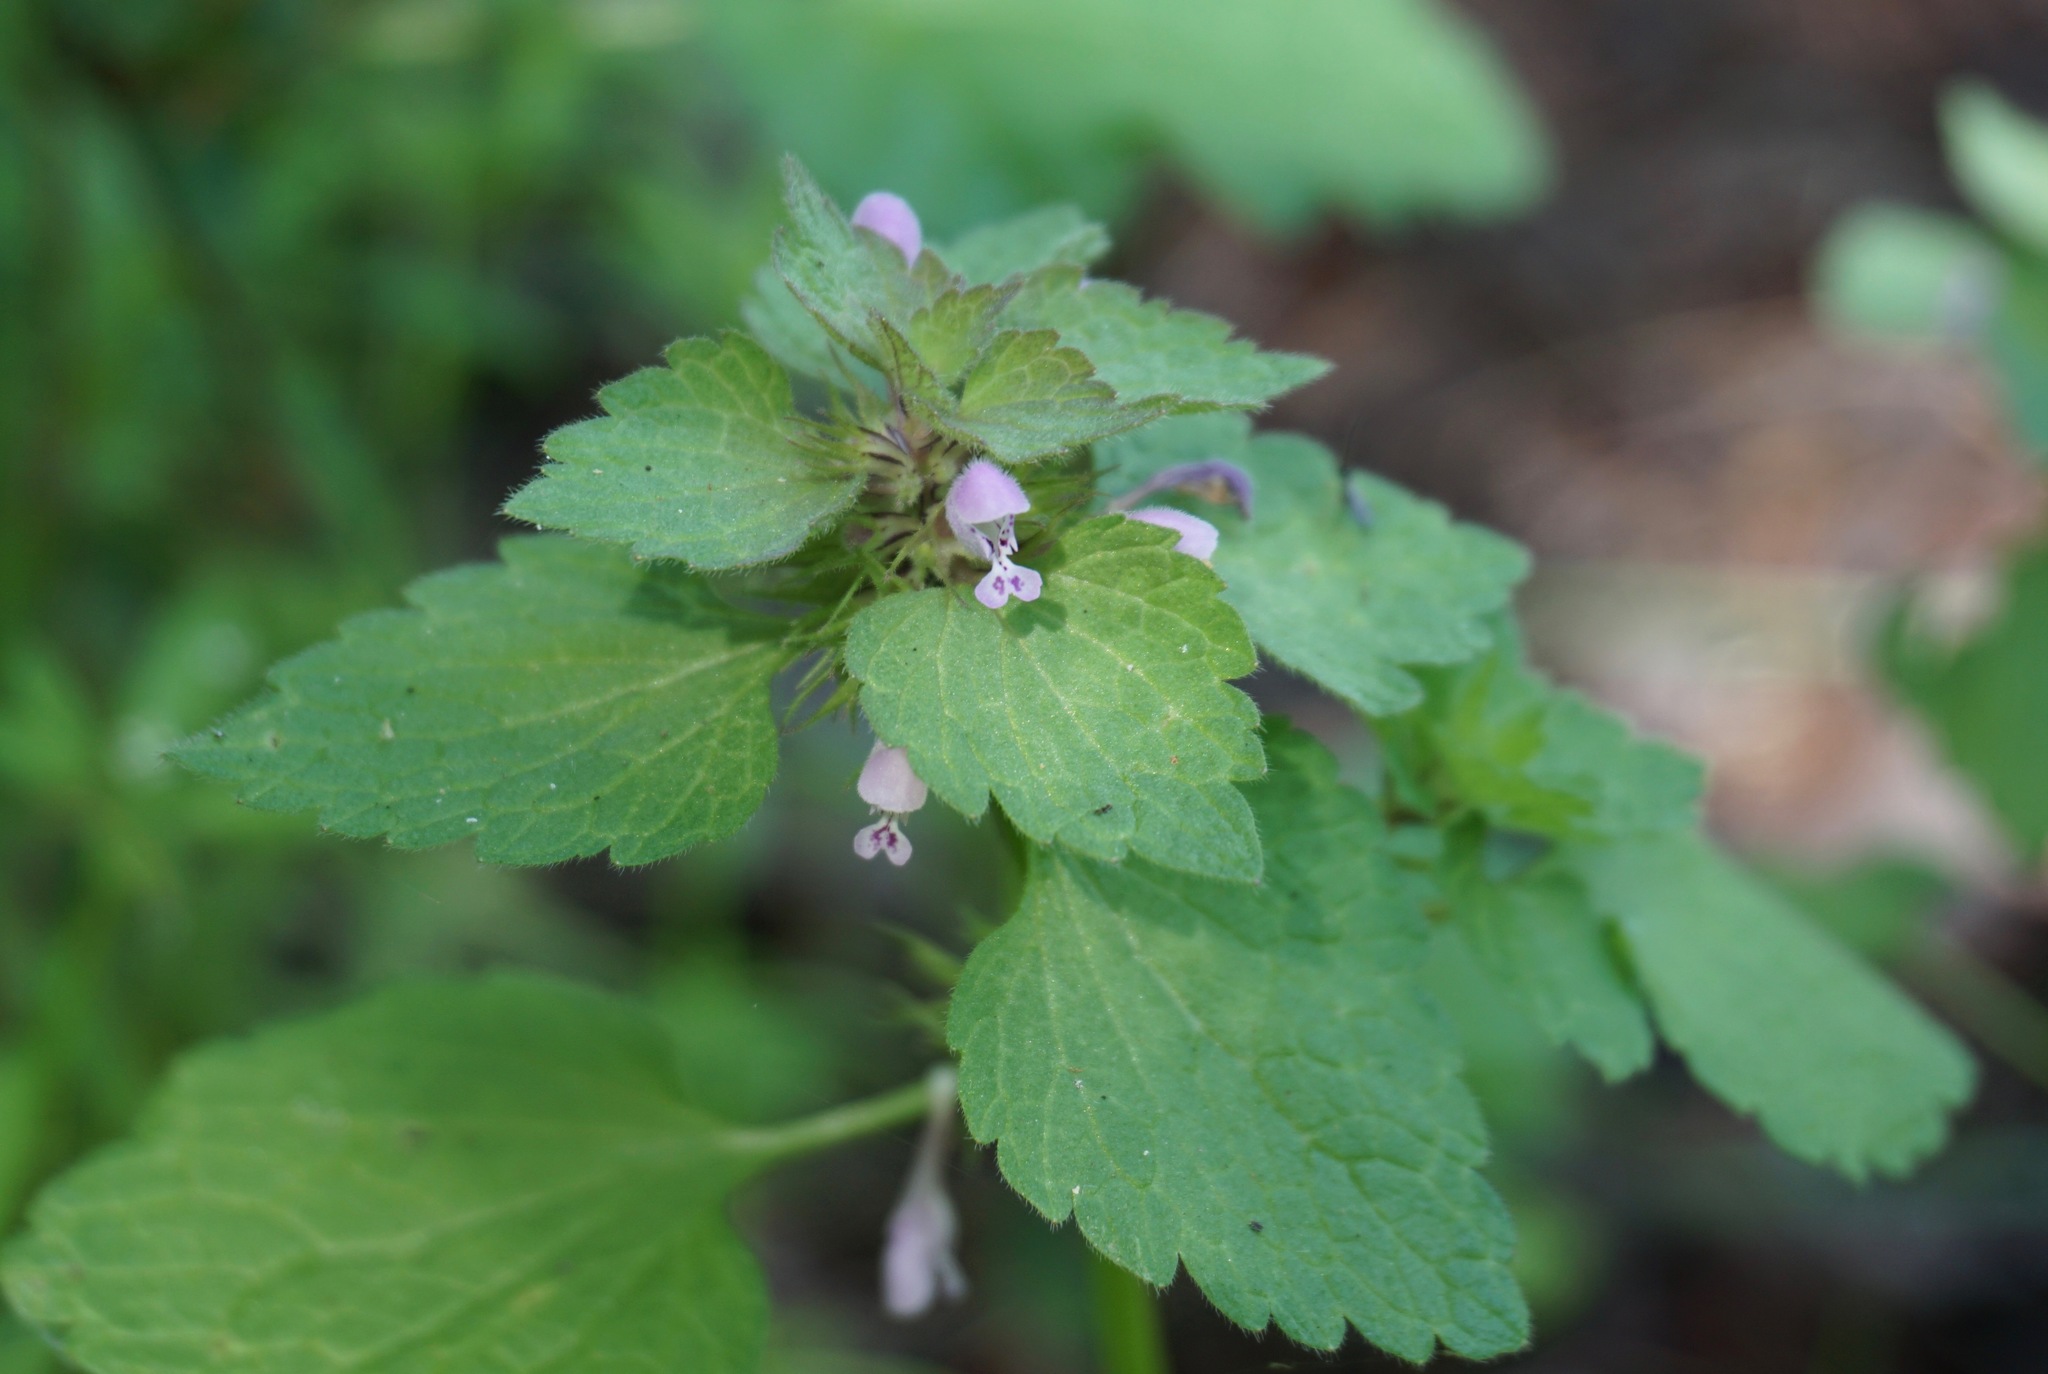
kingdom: Plantae
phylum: Tracheophyta
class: Magnoliopsida
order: Lamiales
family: Lamiaceae
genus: Lamium
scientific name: Lamium purpureum
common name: Red dead-nettle
